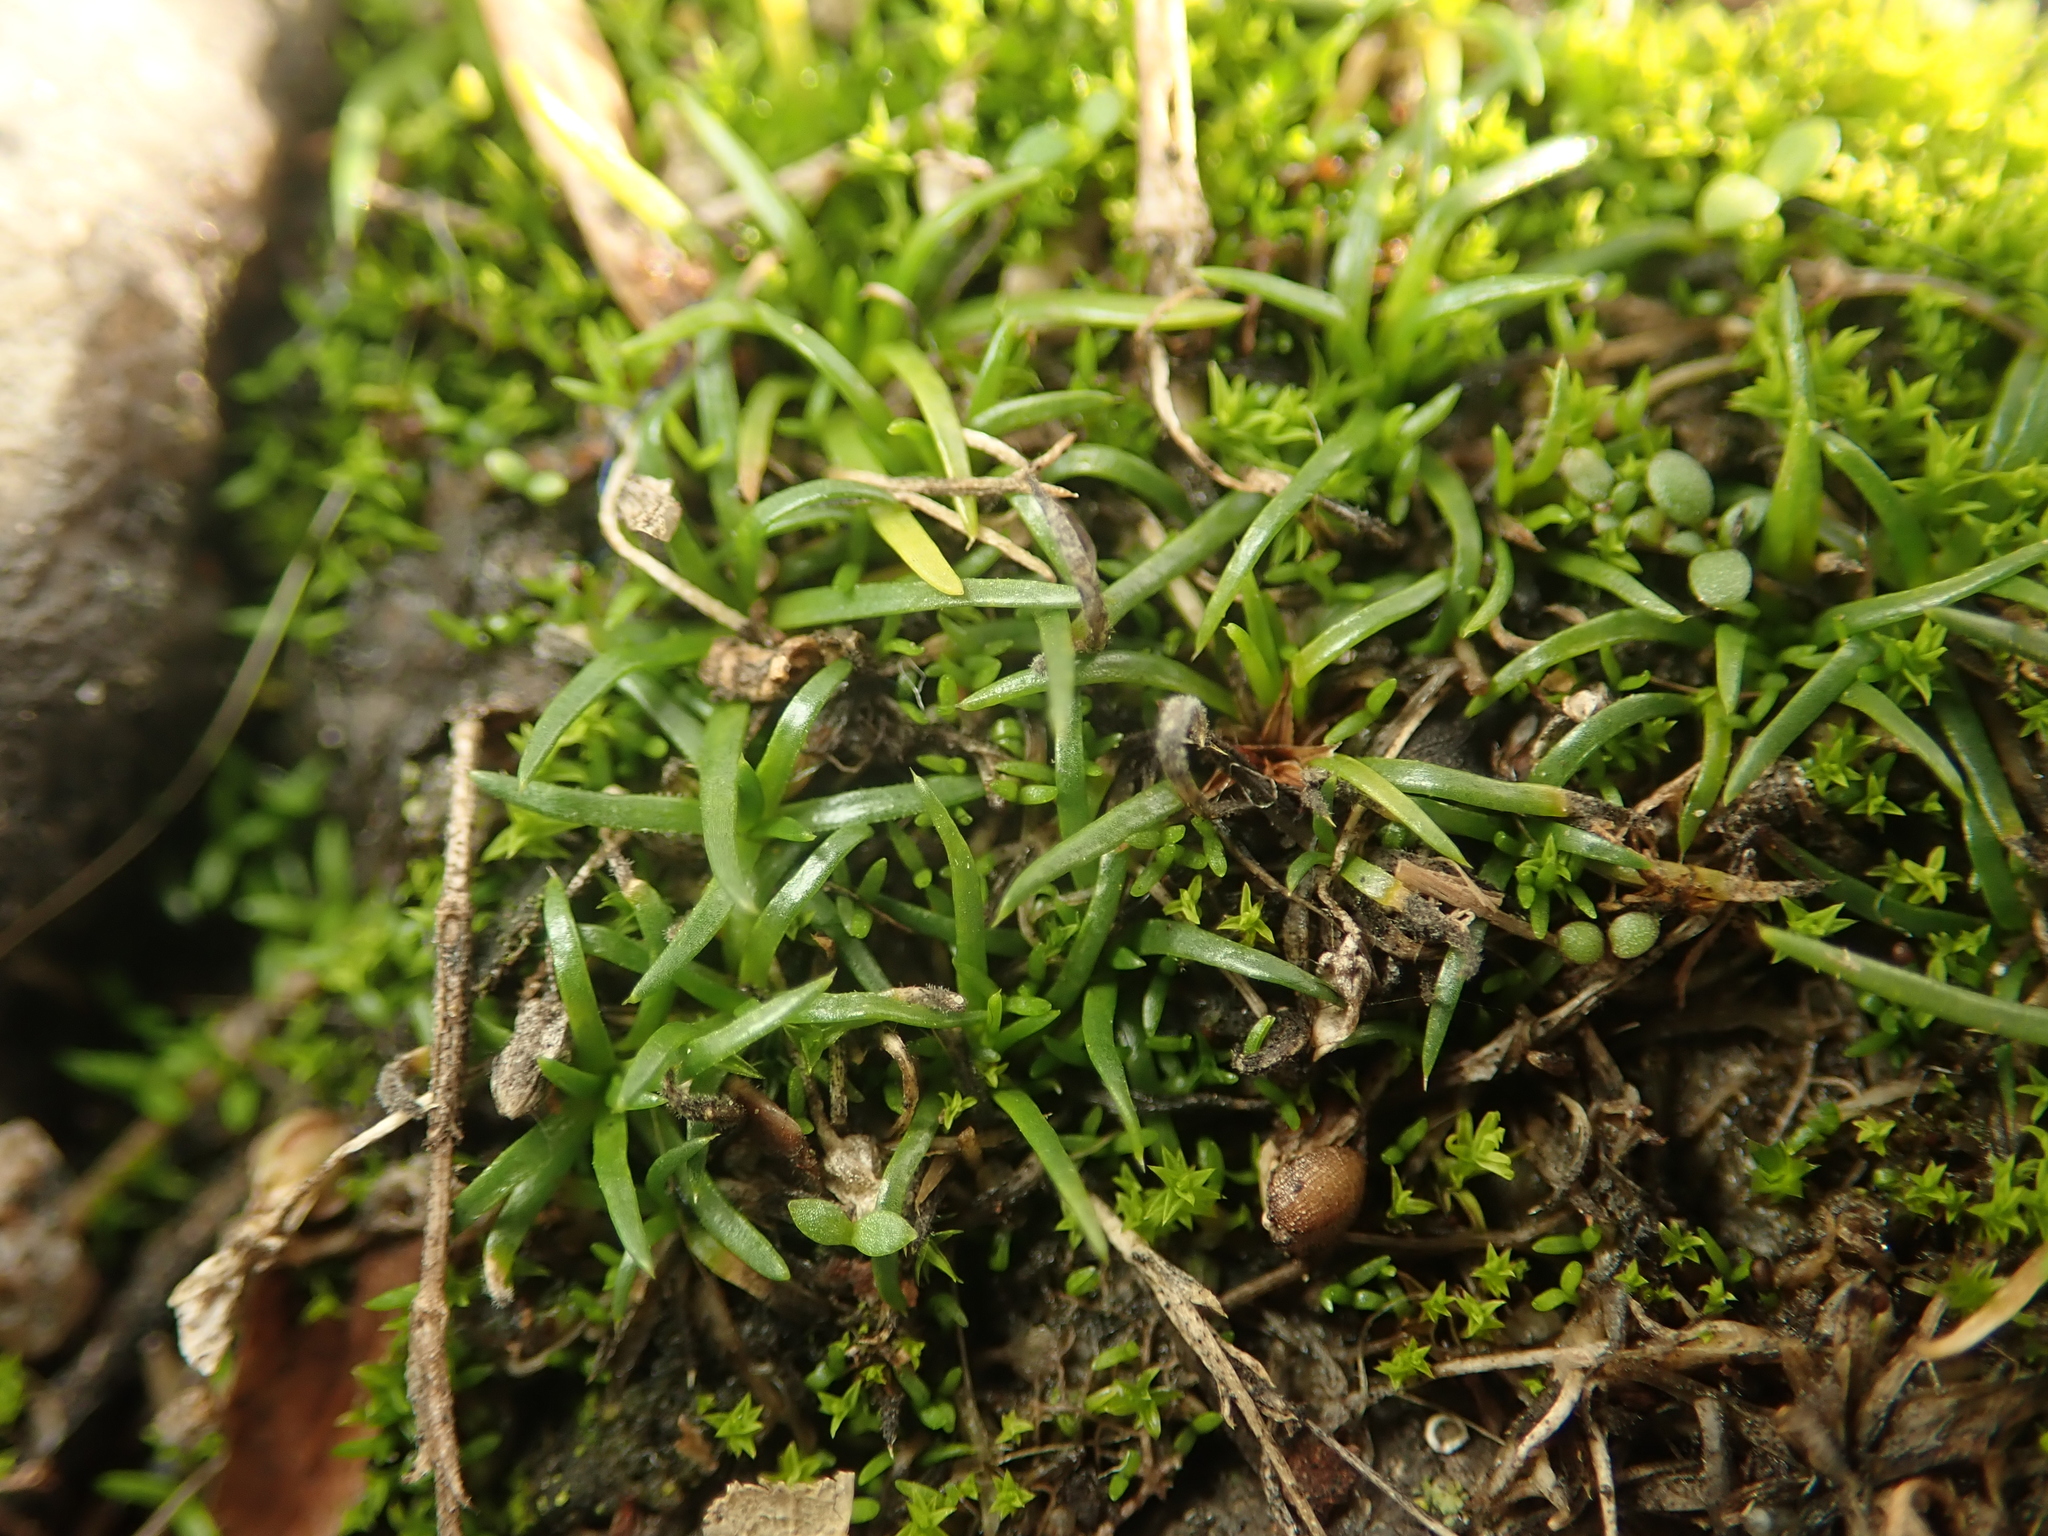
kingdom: Plantae
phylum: Tracheophyta
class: Magnoliopsida
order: Caryophyllales
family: Caryophyllaceae
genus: Sagina
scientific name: Sagina procumbens
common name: Procumbent pearlwort
